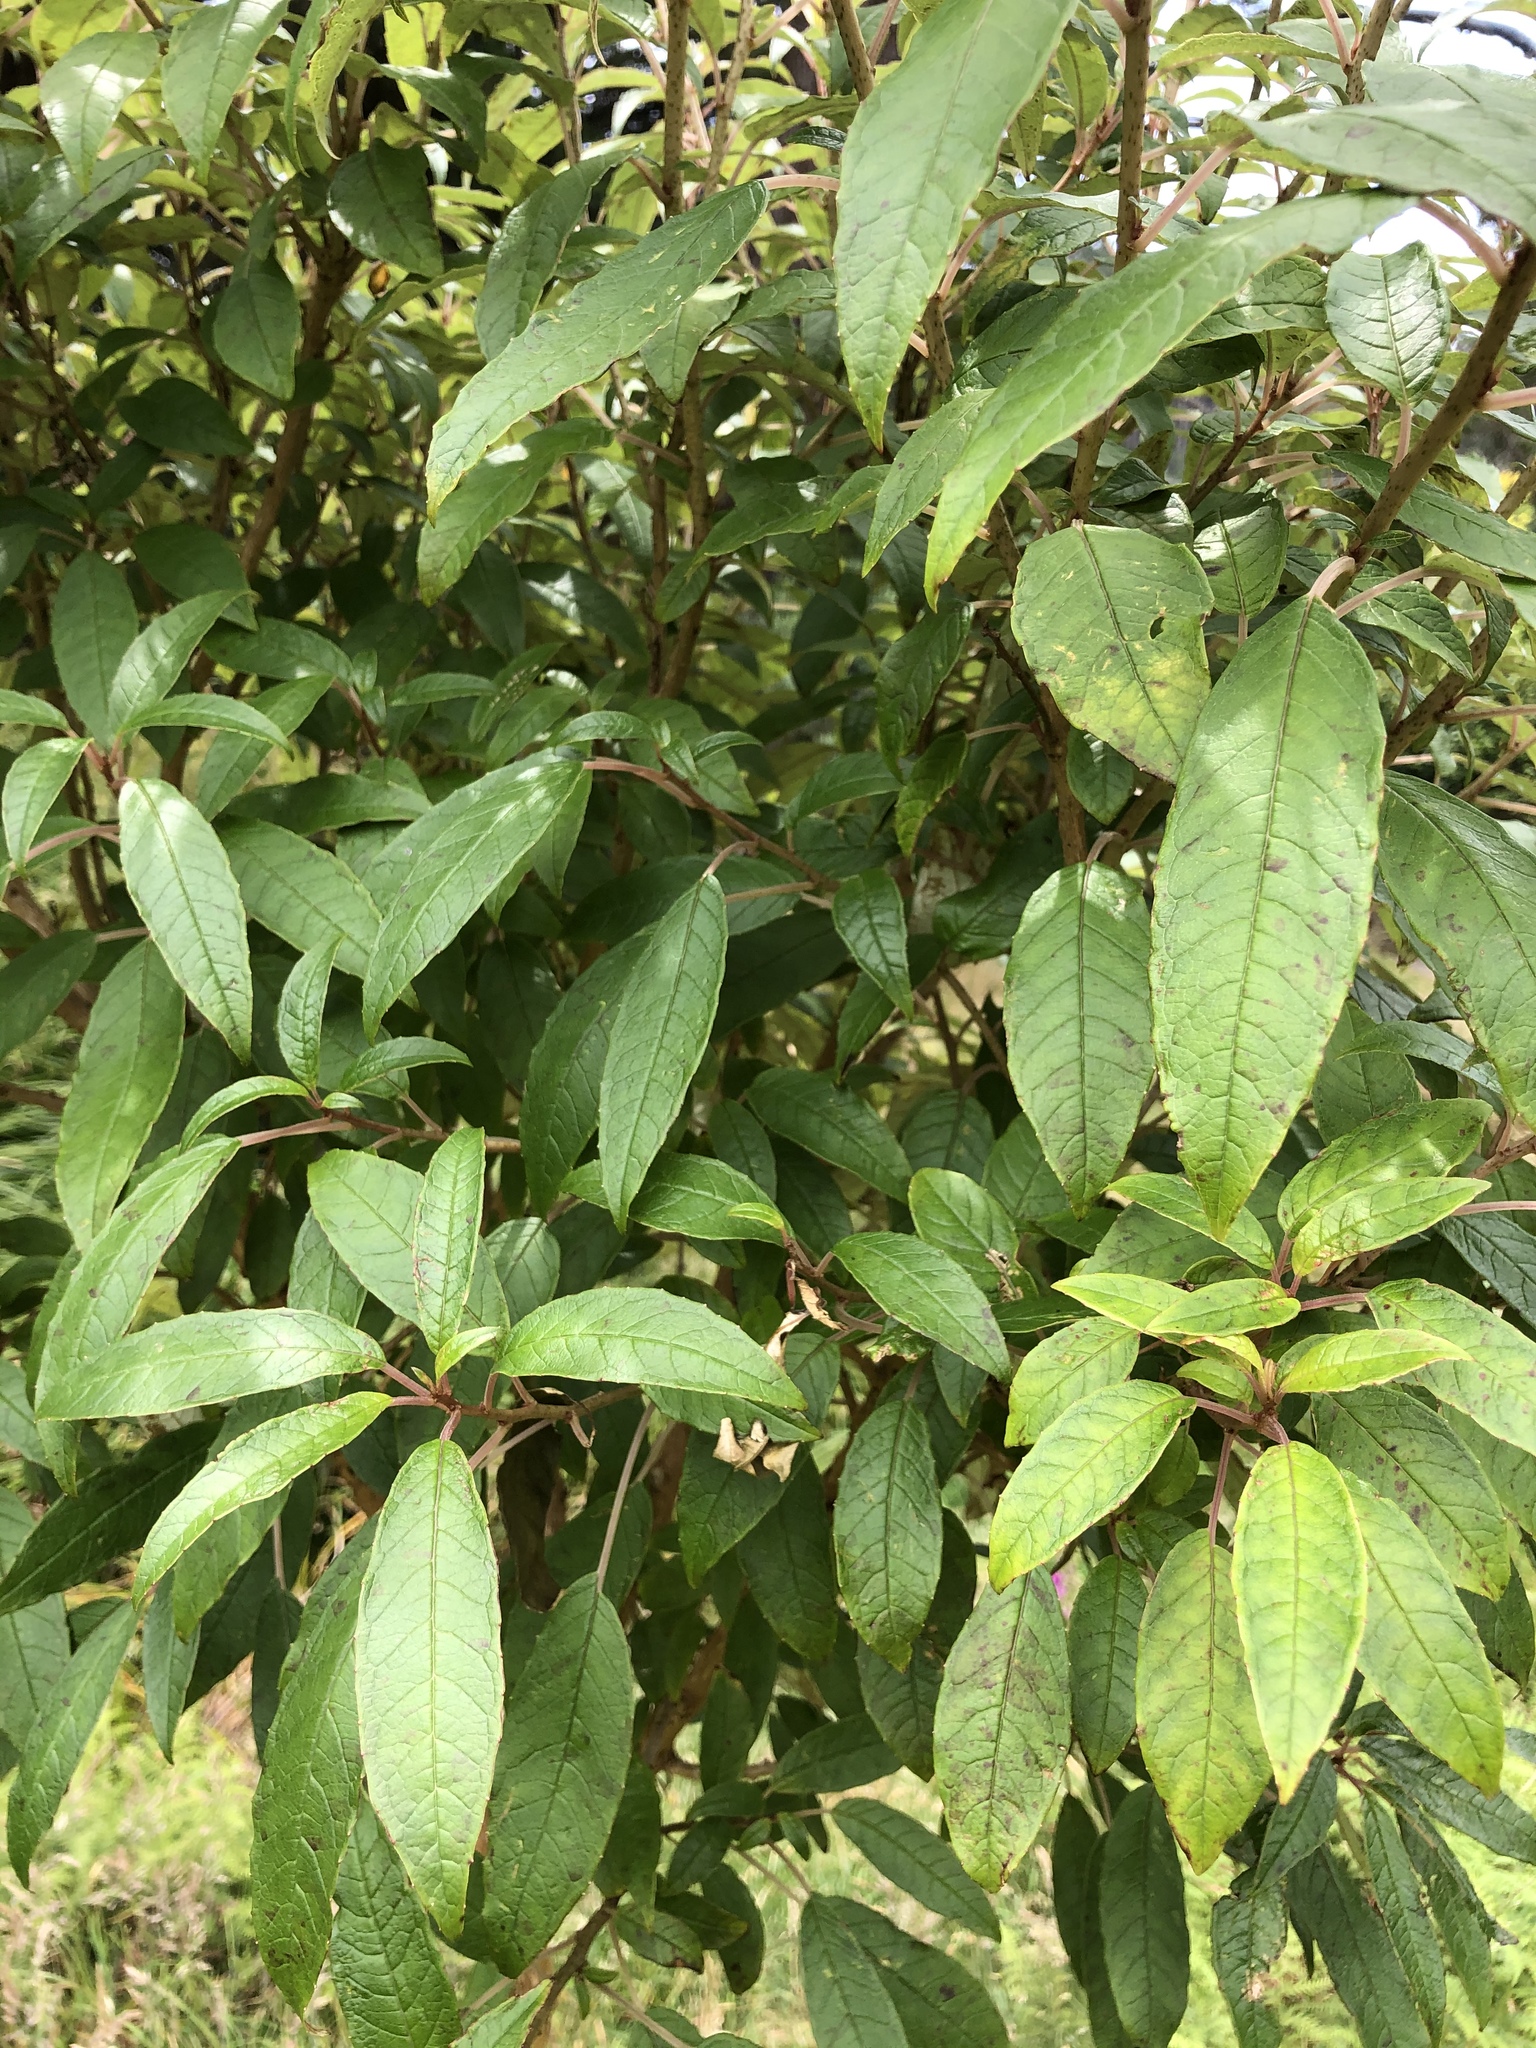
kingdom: Plantae
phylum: Tracheophyta
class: Magnoliopsida
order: Myrtales
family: Onagraceae
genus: Fuchsia
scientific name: Fuchsia excorticata
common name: Tree fuchsia
